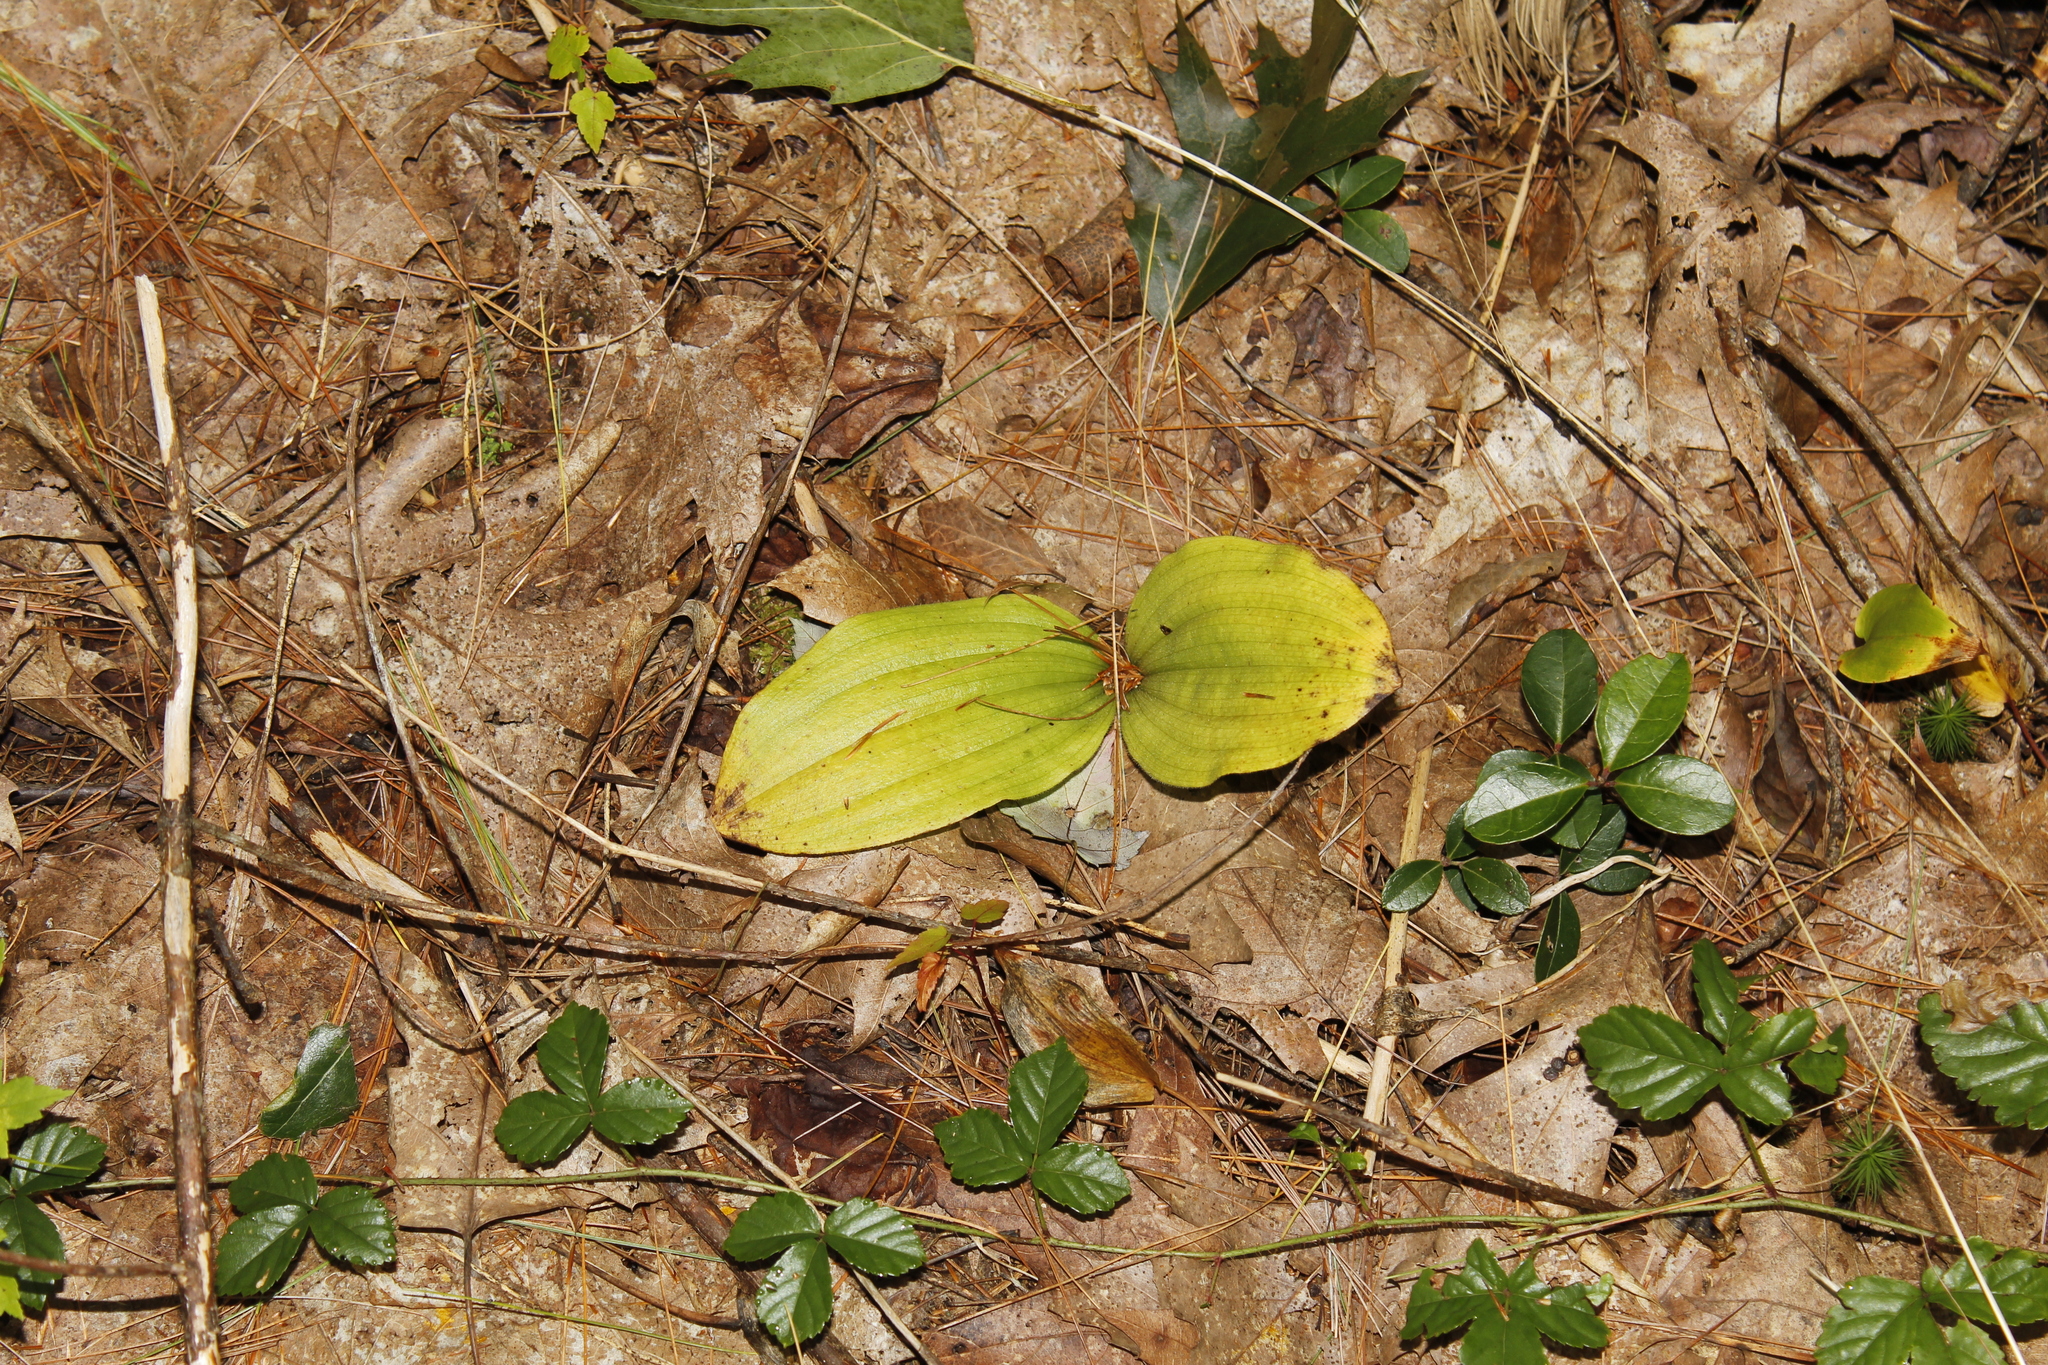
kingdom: Plantae
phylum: Tracheophyta
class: Liliopsida
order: Asparagales
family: Orchidaceae
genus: Cypripedium
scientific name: Cypripedium acaule
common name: Pink lady's-slipper
